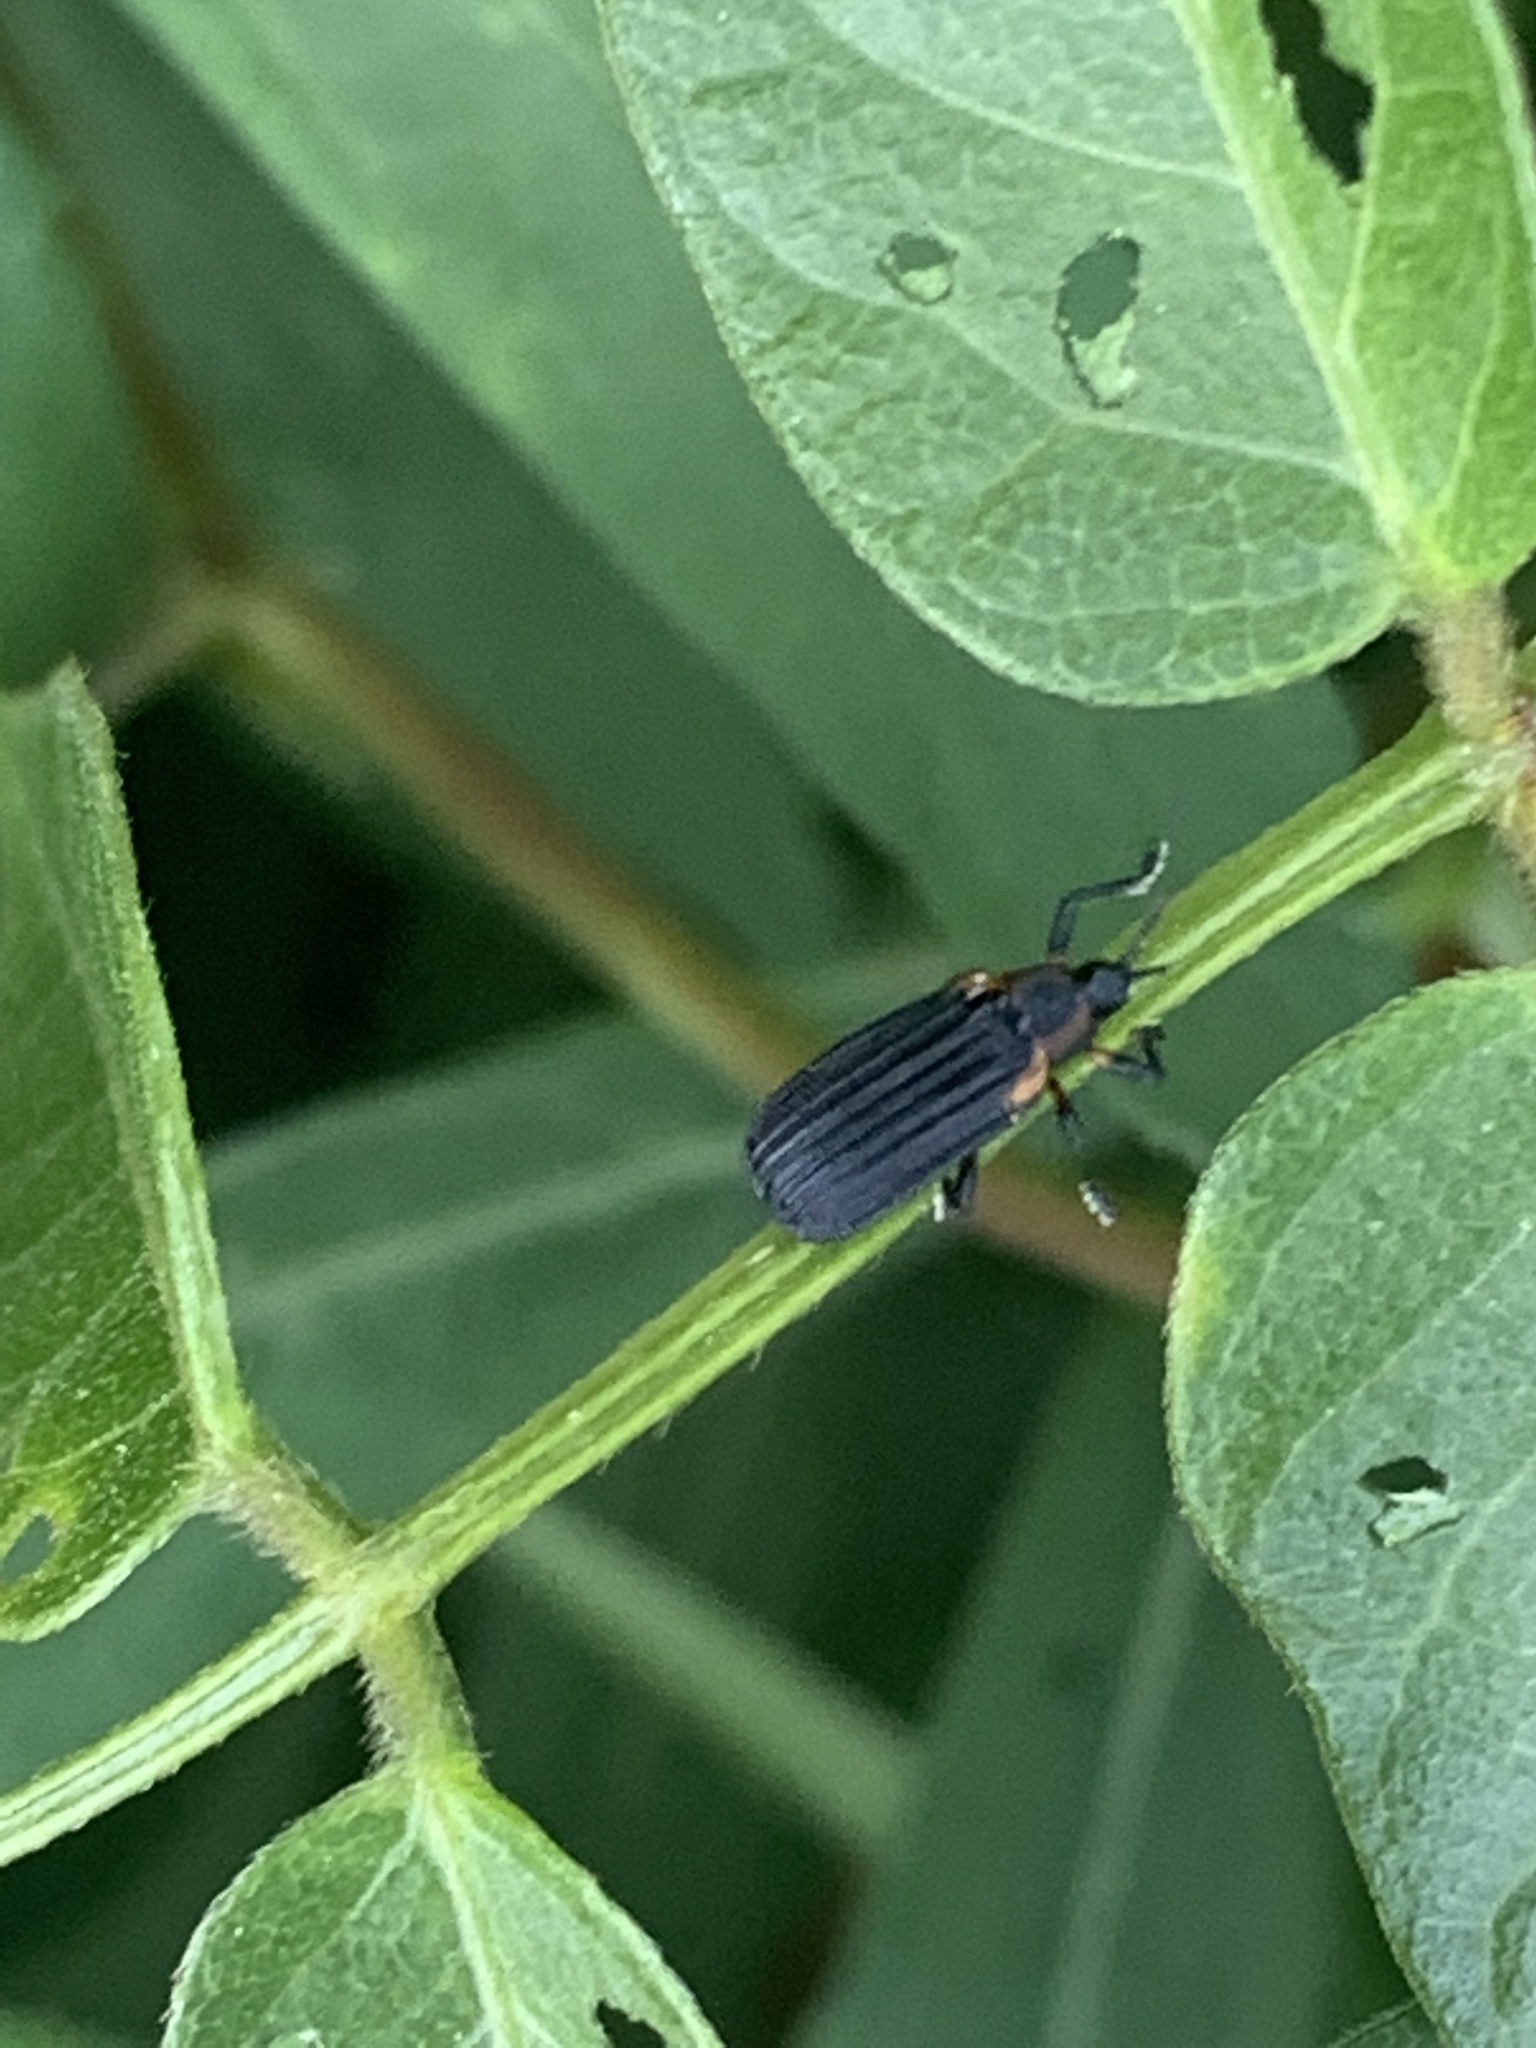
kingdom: Animalia
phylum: Arthropoda
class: Insecta
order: Coleoptera
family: Chrysomelidae
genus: Odontota
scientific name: Odontota scapularis
